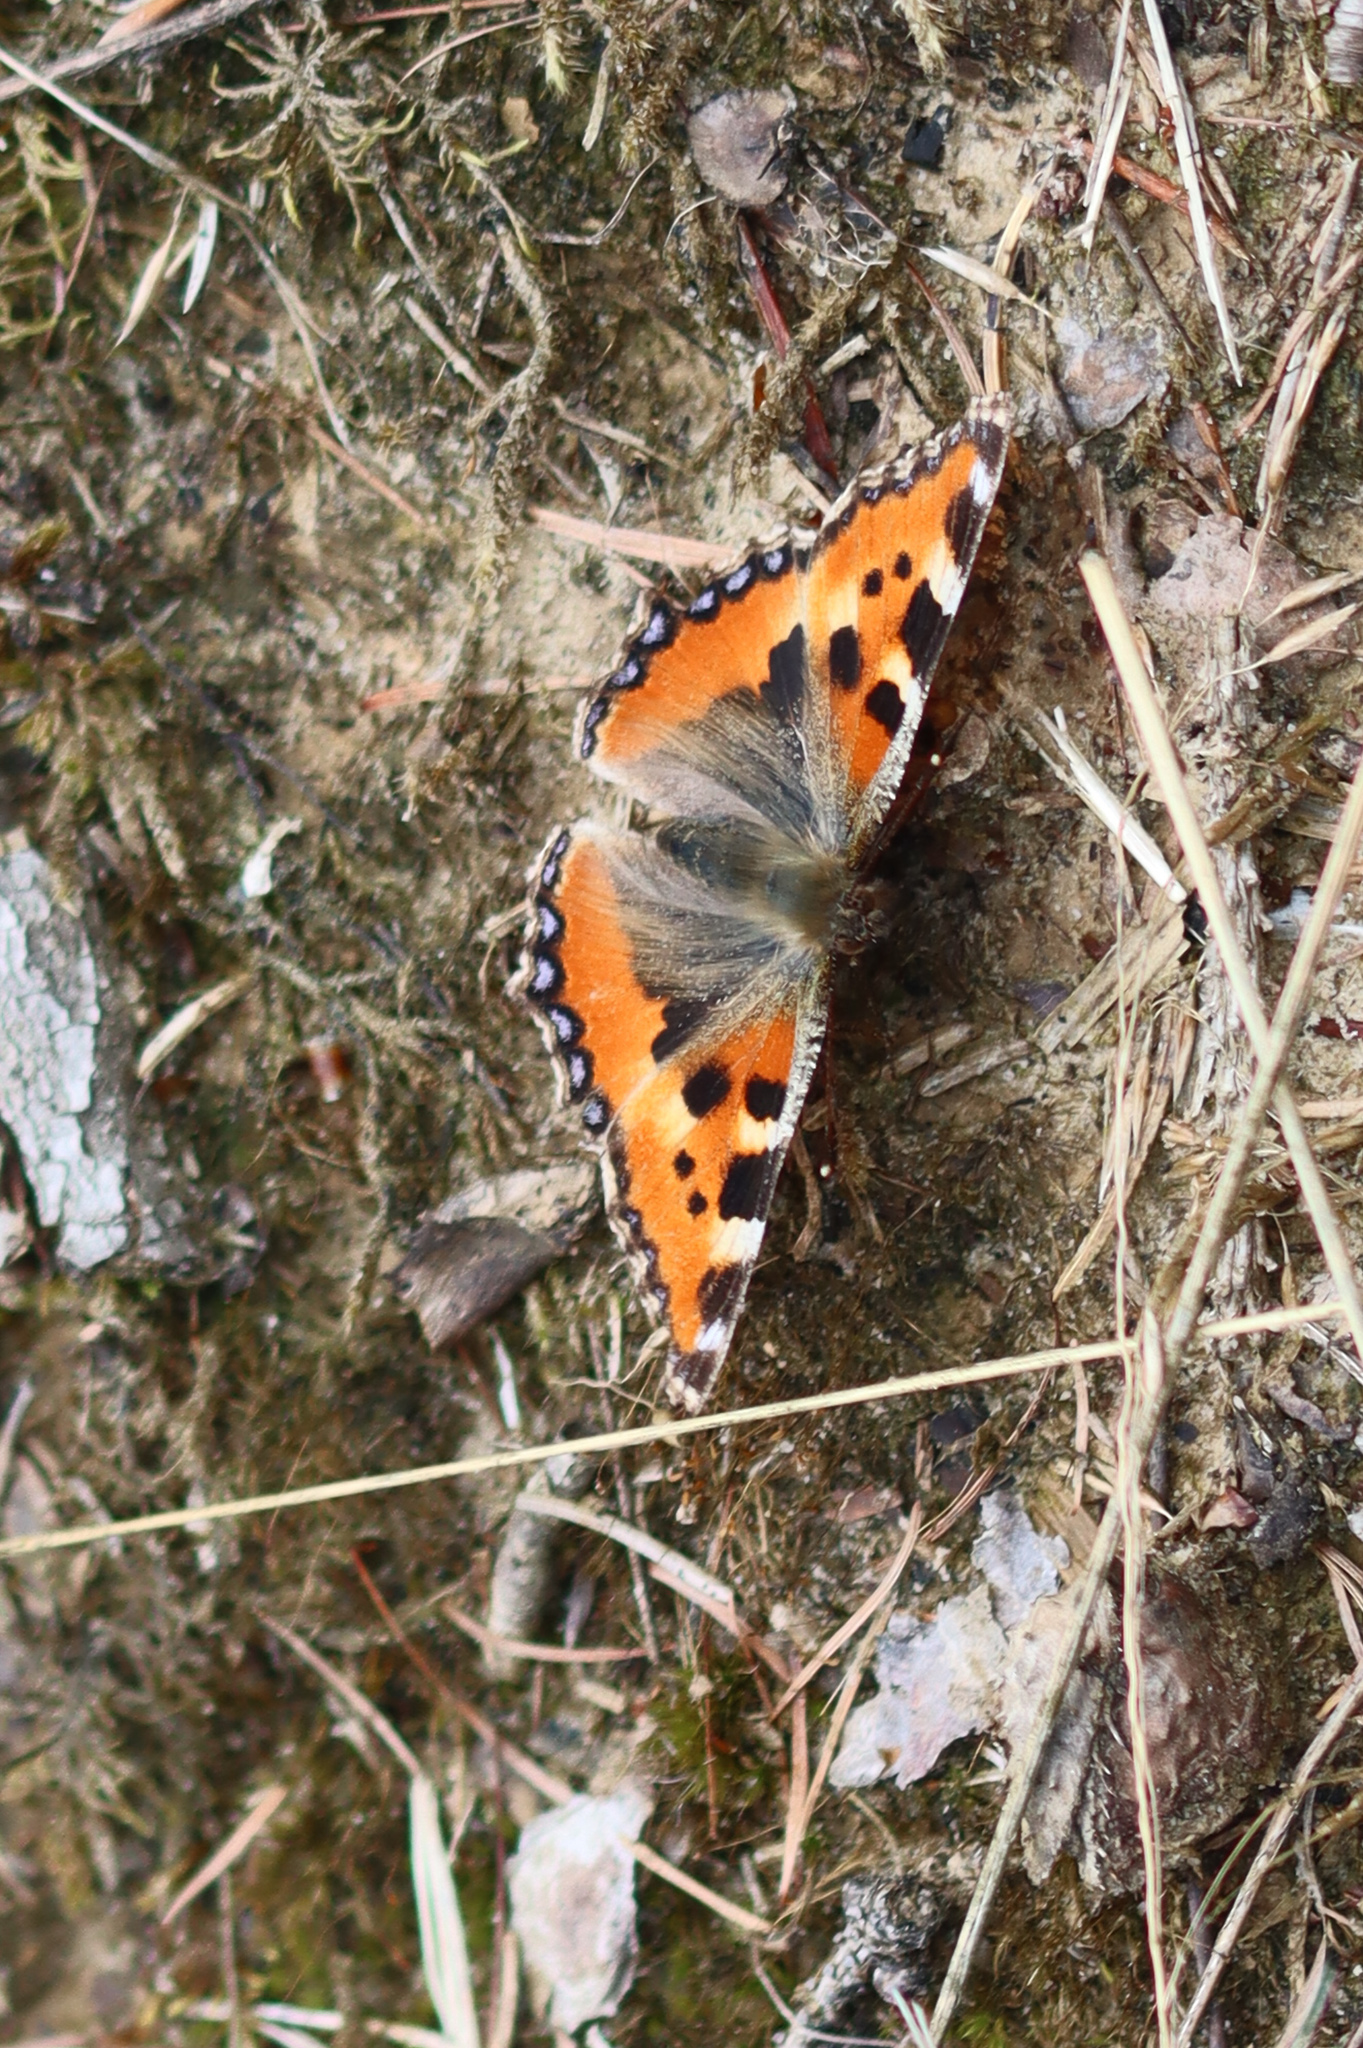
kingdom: Animalia
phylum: Arthropoda
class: Insecta
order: Lepidoptera
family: Nymphalidae
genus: Aglais
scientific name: Aglais urticae
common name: Small tortoiseshell
